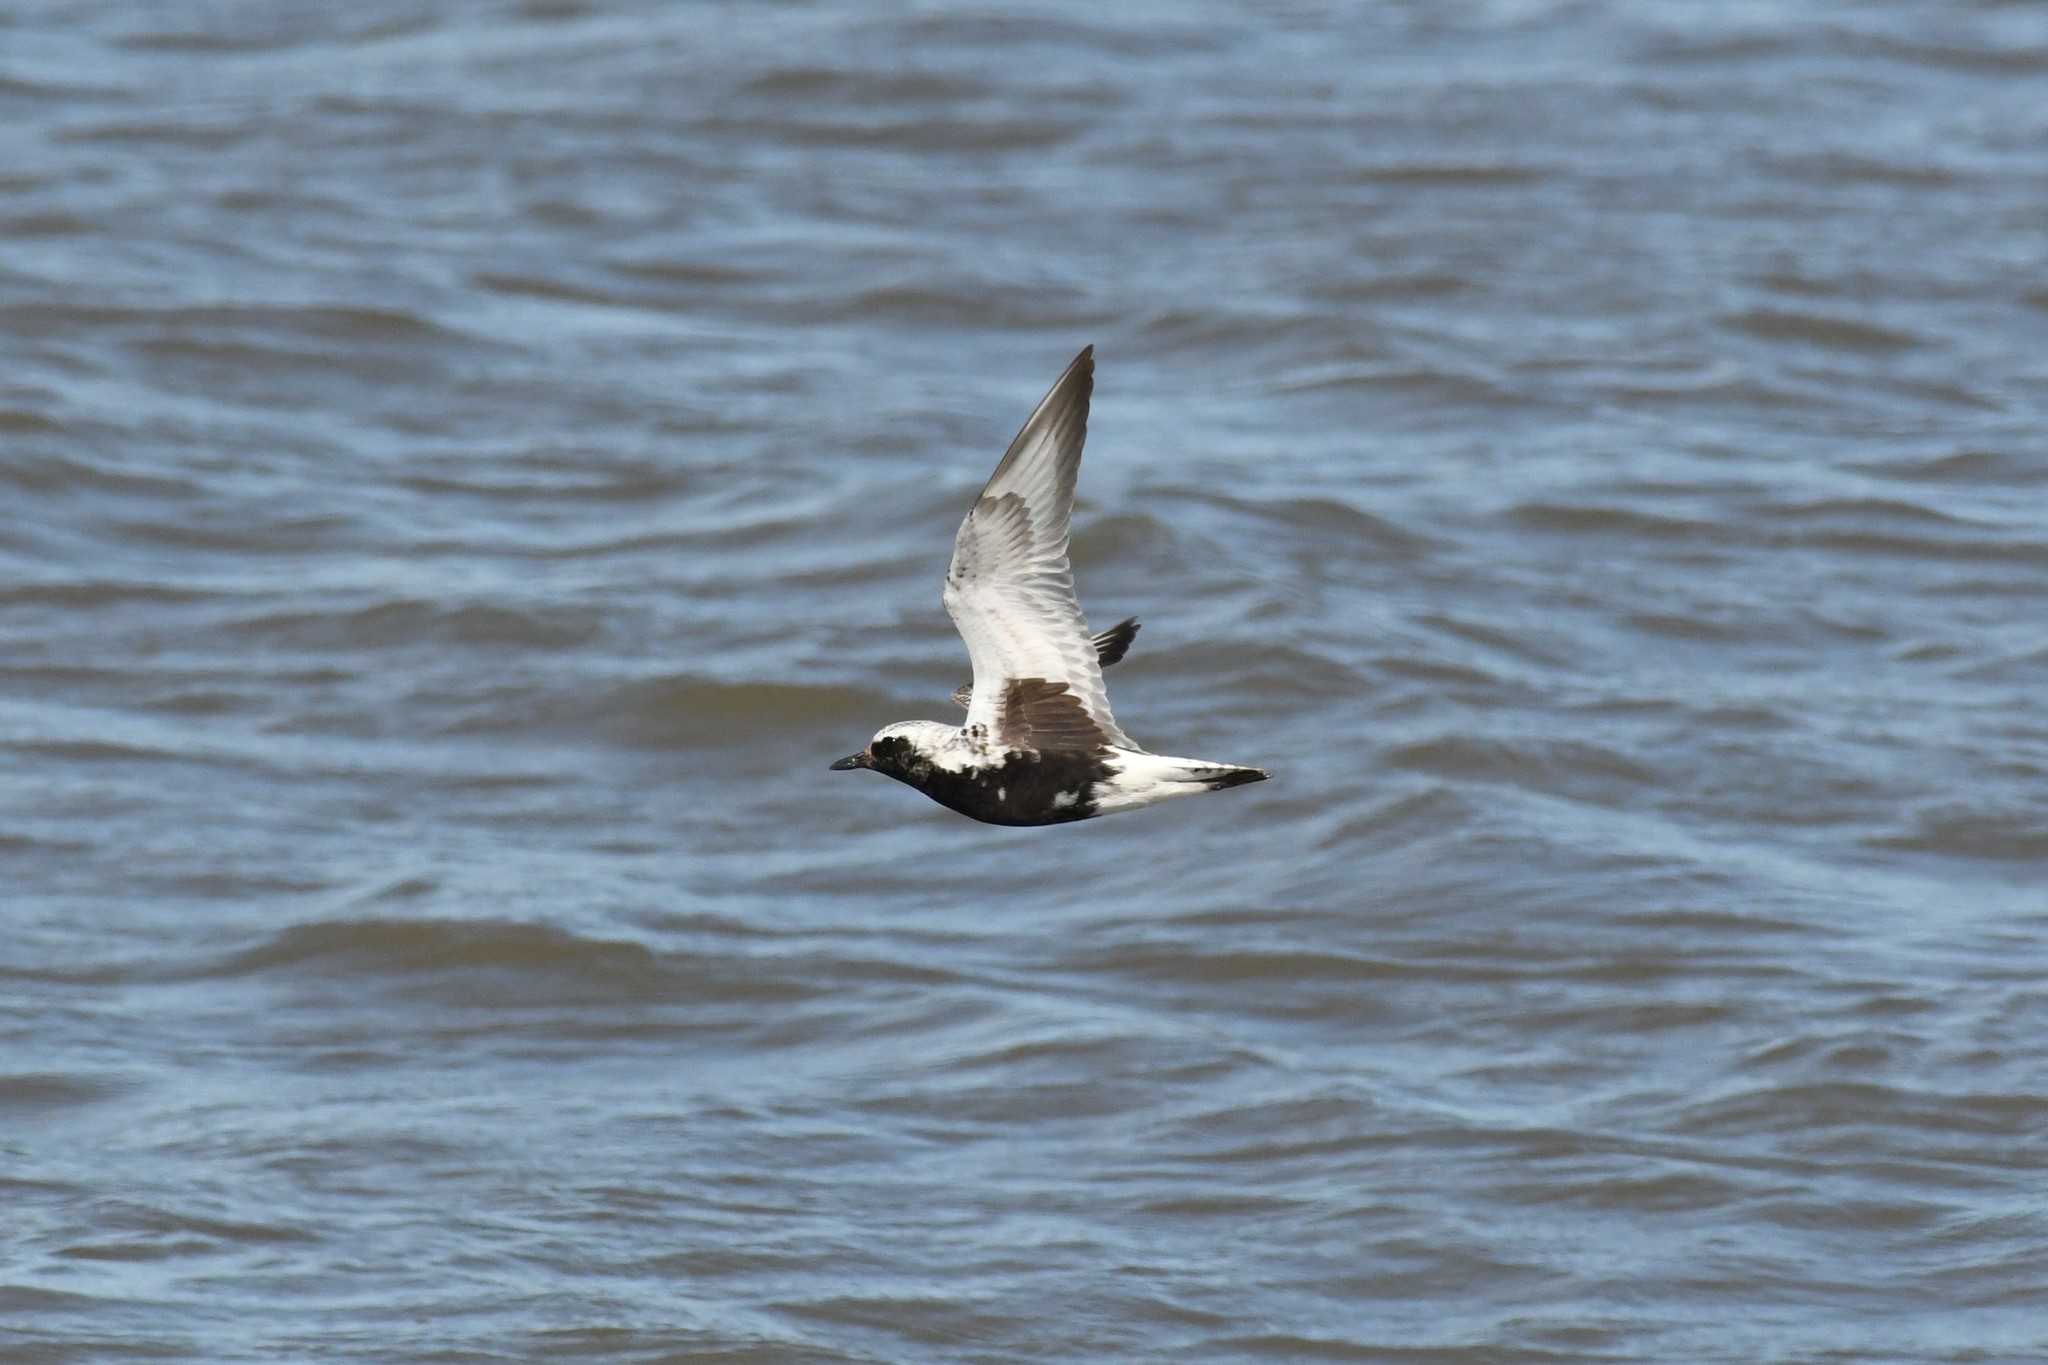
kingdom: Animalia
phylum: Chordata
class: Aves
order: Charadriiformes
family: Charadriidae
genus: Pluvialis
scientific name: Pluvialis squatarola
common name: Grey plover
